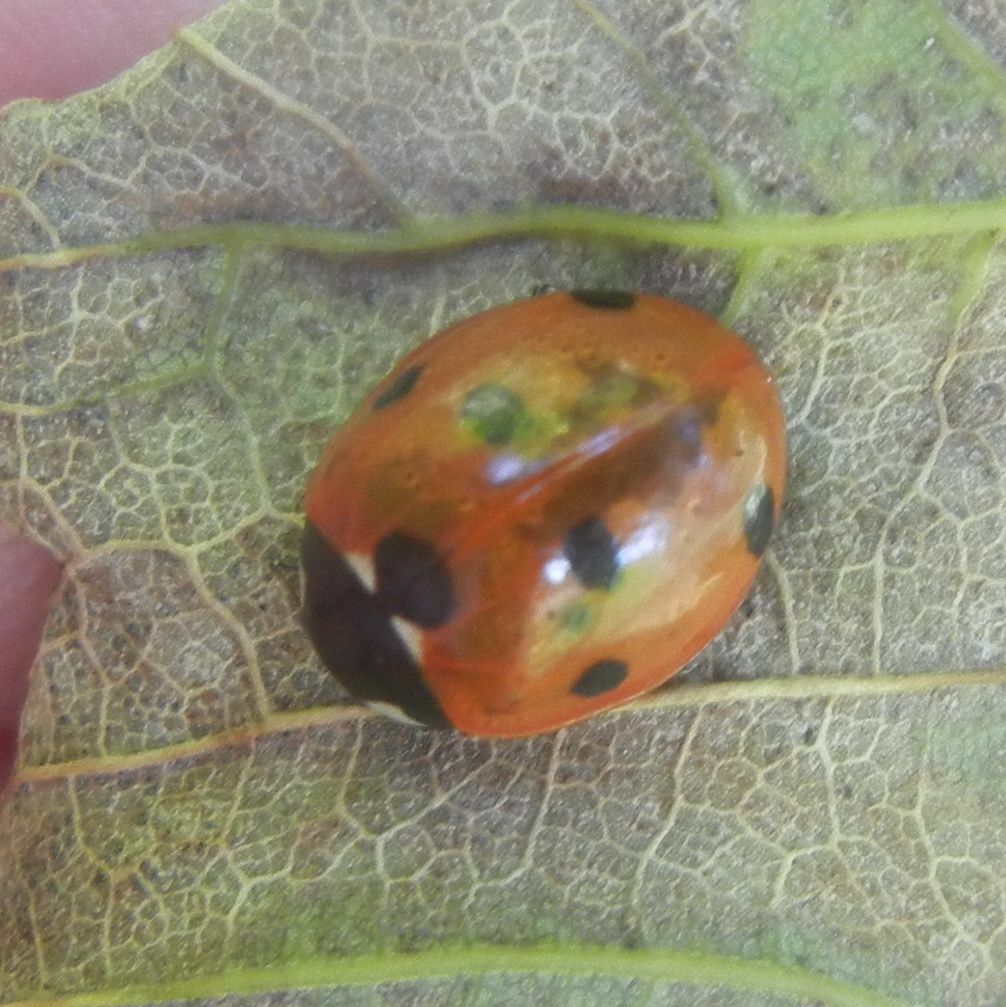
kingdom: Animalia
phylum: Arthropoda
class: Insecta
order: Coleoptera
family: Coccinellidae
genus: Coccinella
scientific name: Coccinella septempunctata
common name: Sevenspotted lady beetle
